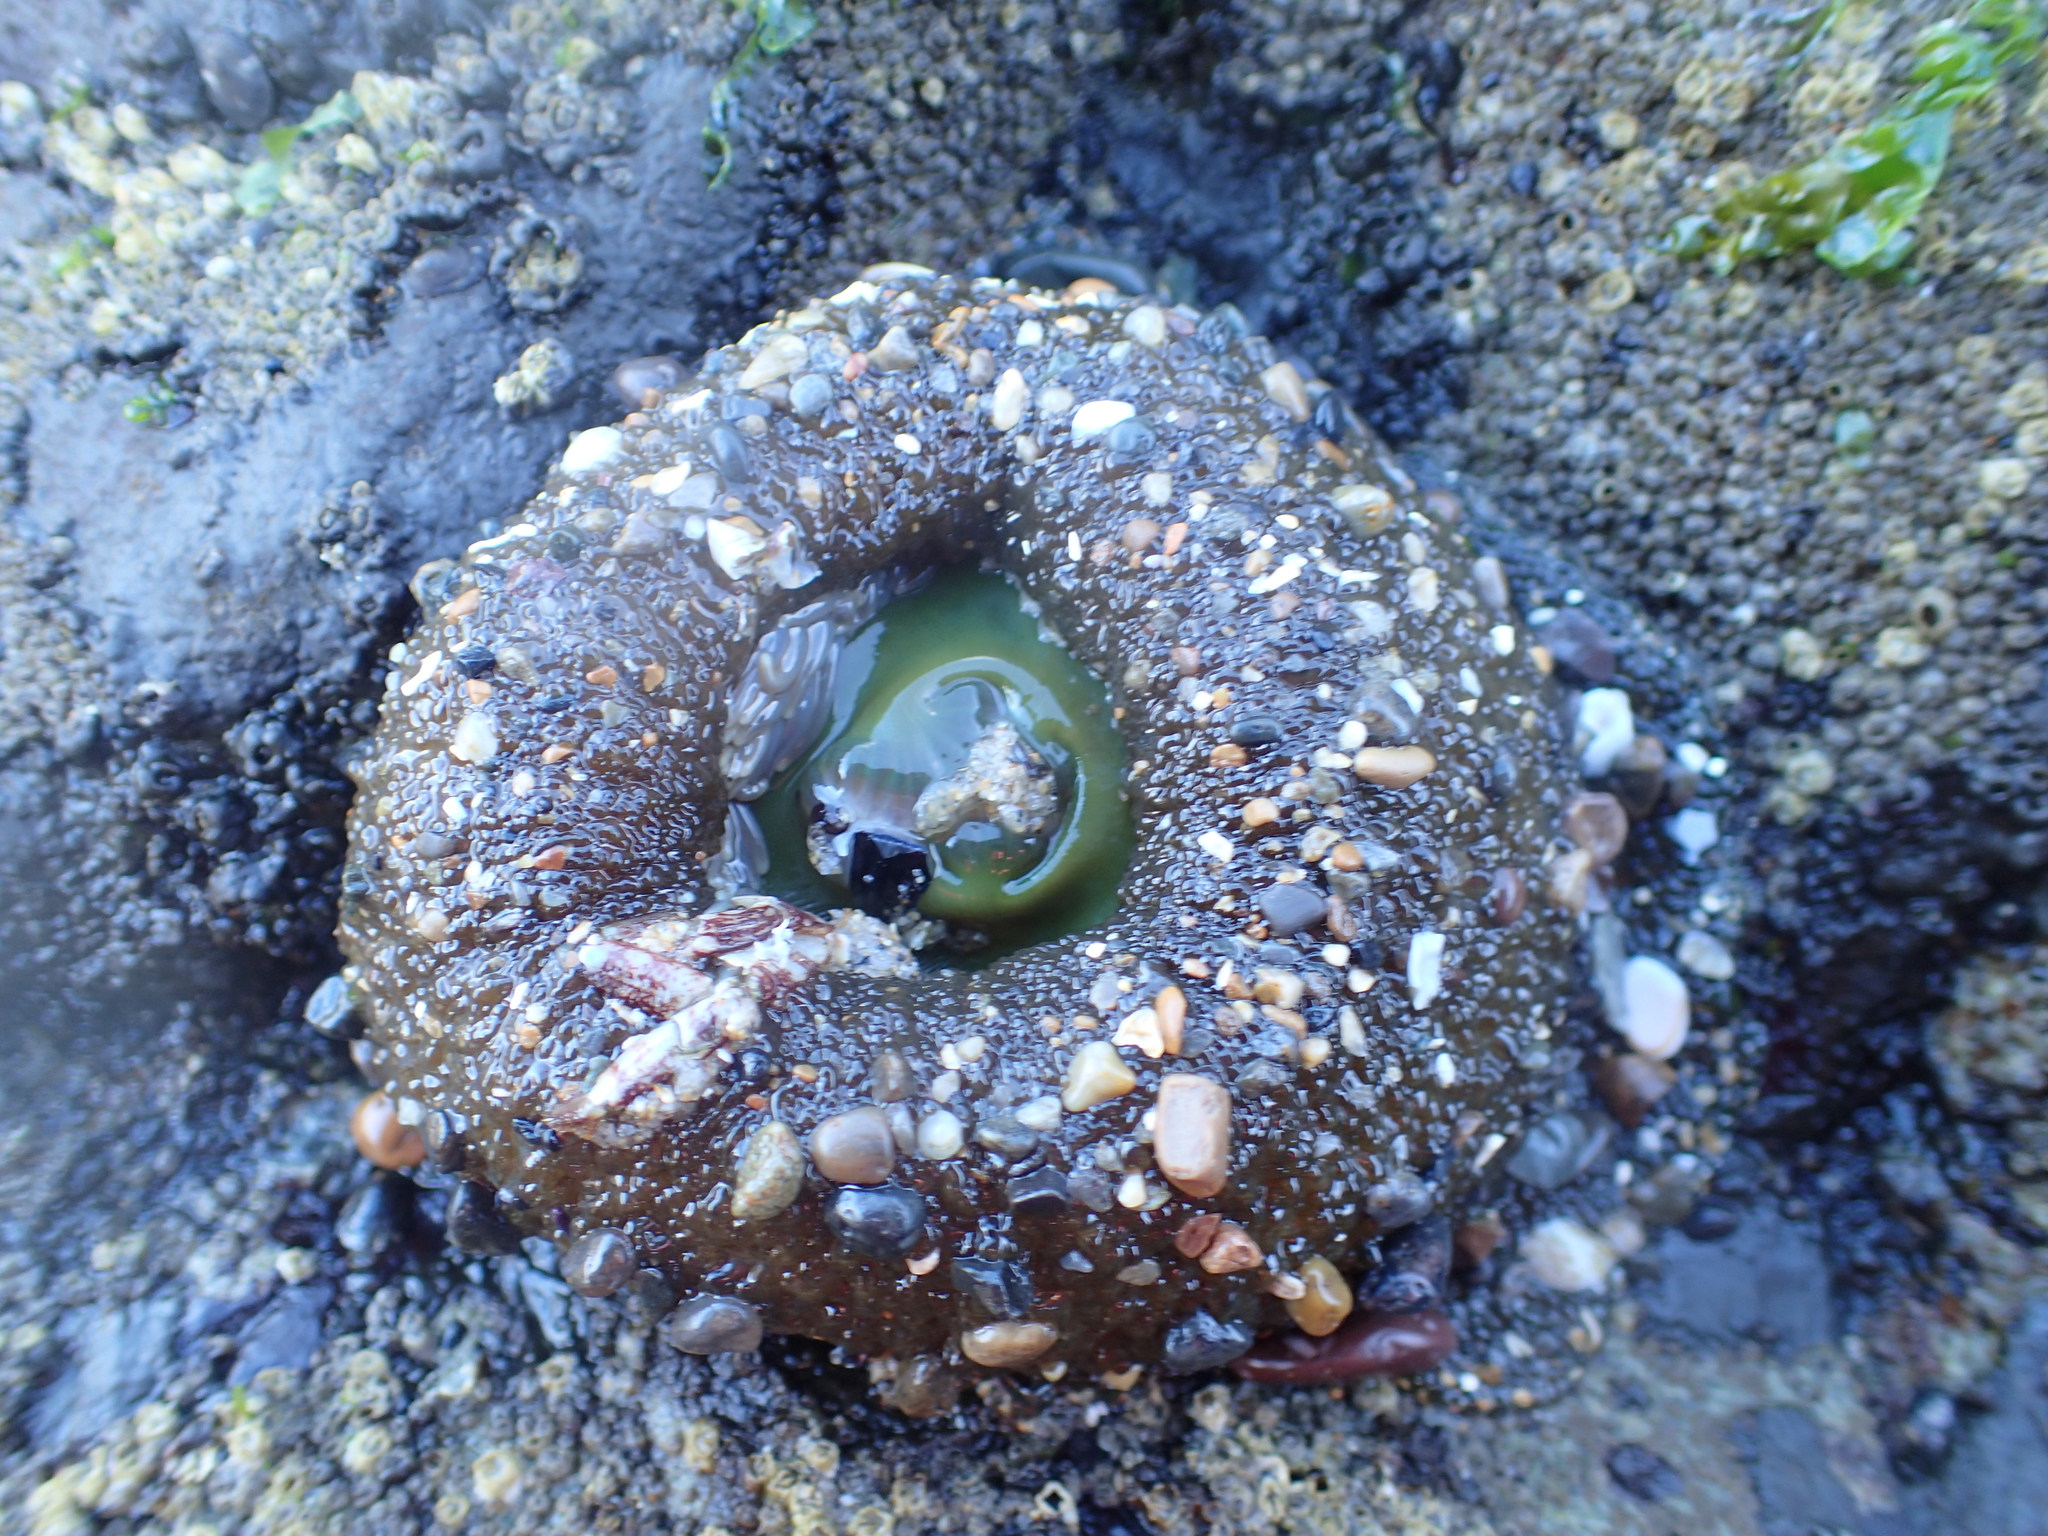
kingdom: Animalia
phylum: Cnidaria
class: Anthozoa
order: Actiniaria
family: Actiniidae
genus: Anthopleura
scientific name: Anthopleura xanthogrammica
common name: Giant green anemone
